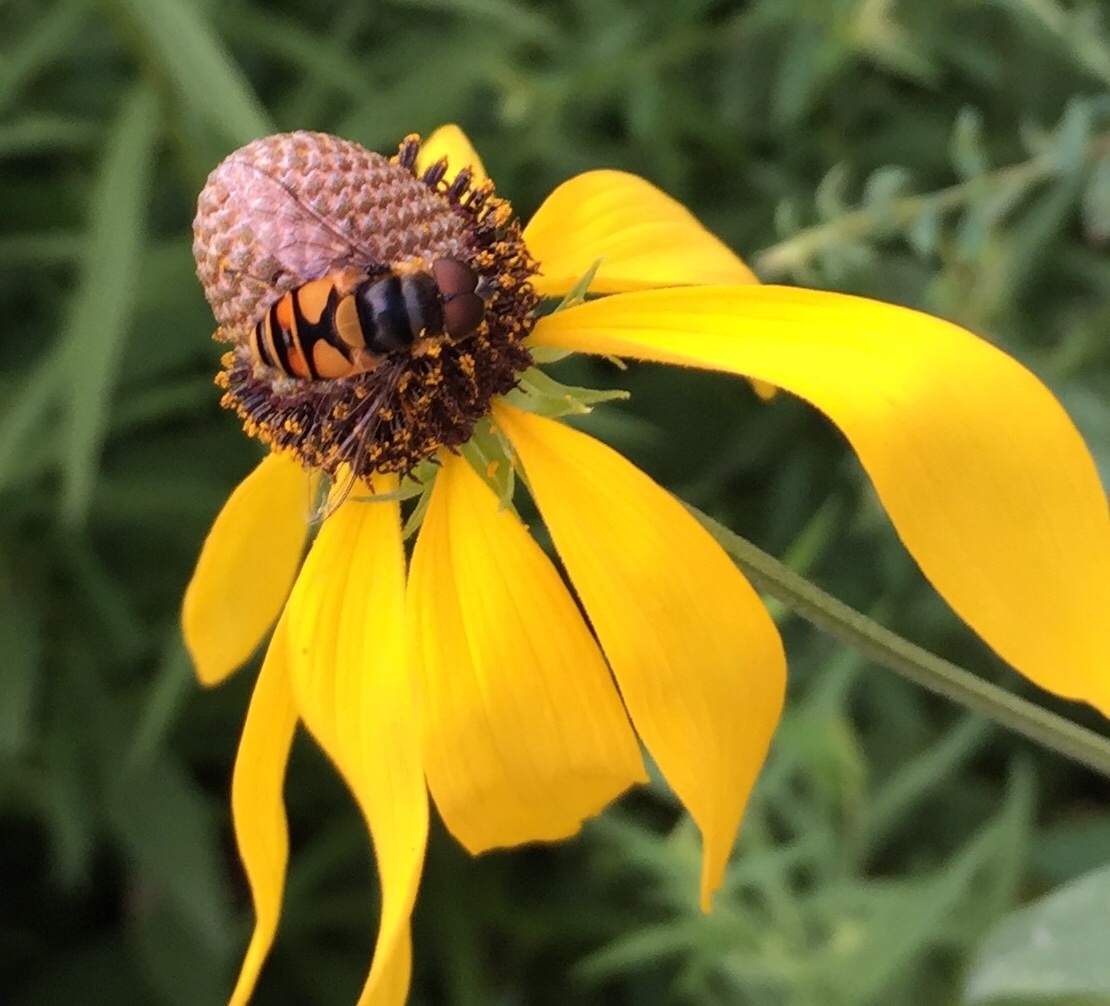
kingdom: Animalia
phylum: Arthropoda
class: Insecta
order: Diptera
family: Syrphidae
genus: Eristalis
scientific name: Eristalis transversa
